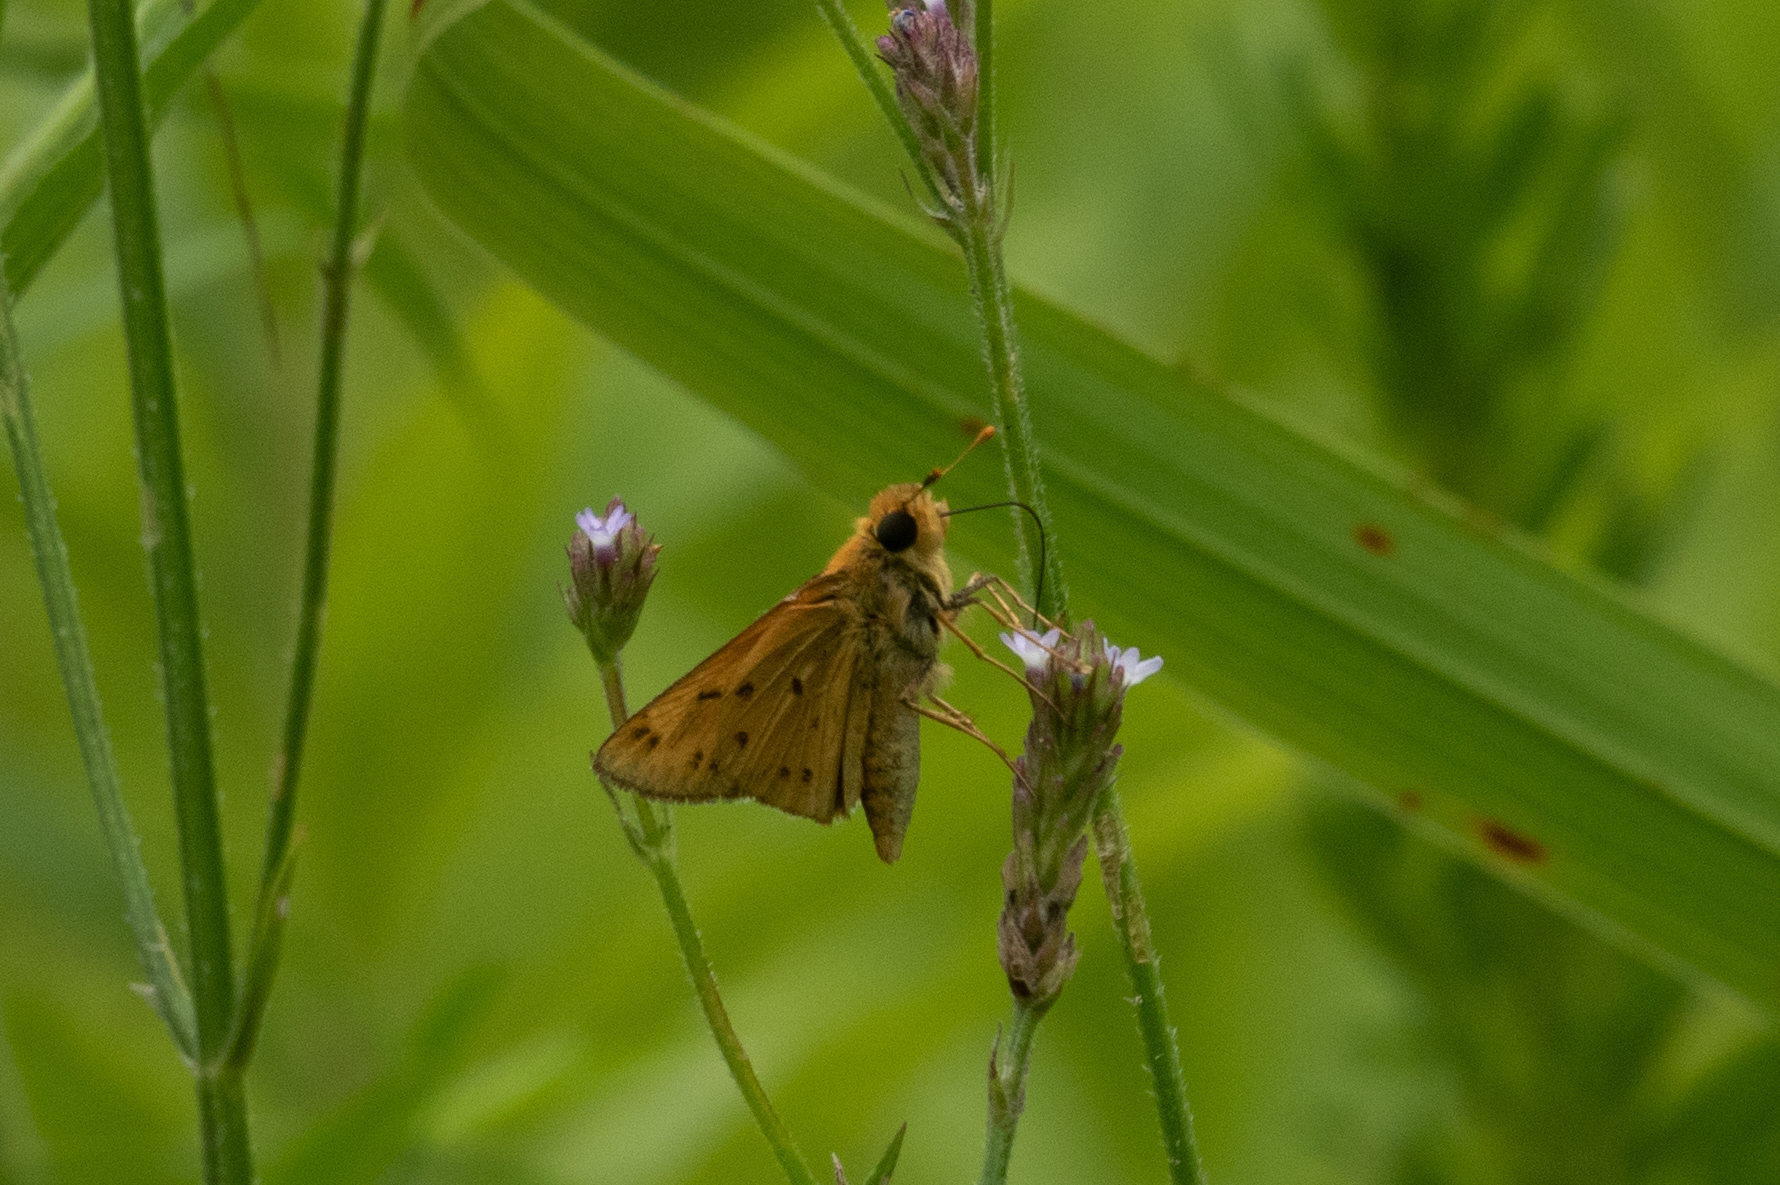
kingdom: Animalia
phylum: Arthropoda
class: Insecta
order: Lepidoptera
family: Hesperiidae
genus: Hylephila
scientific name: Hylephila phyleus
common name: Fiery skipper
